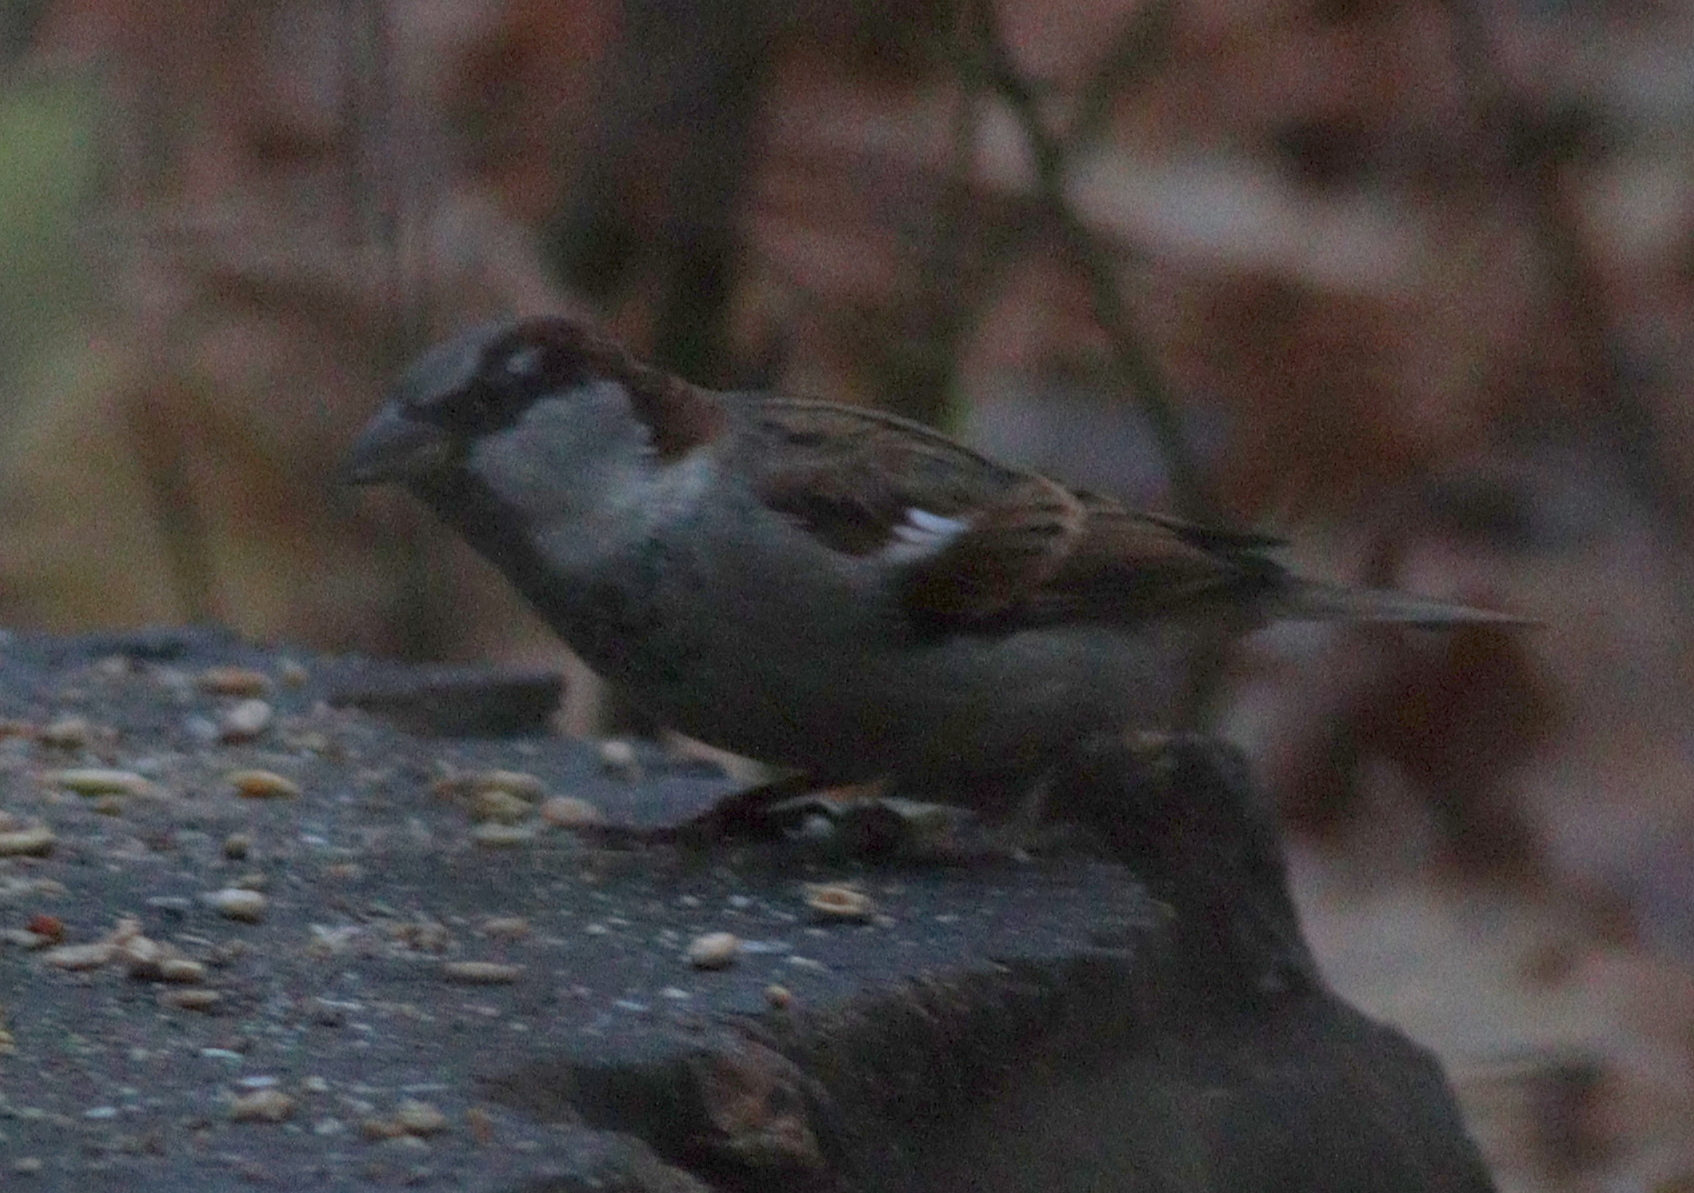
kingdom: Animalia
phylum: Chordata
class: Aves
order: Passeriformes
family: Passeridae
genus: Passer
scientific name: Passer domesticus
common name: House sparrow
